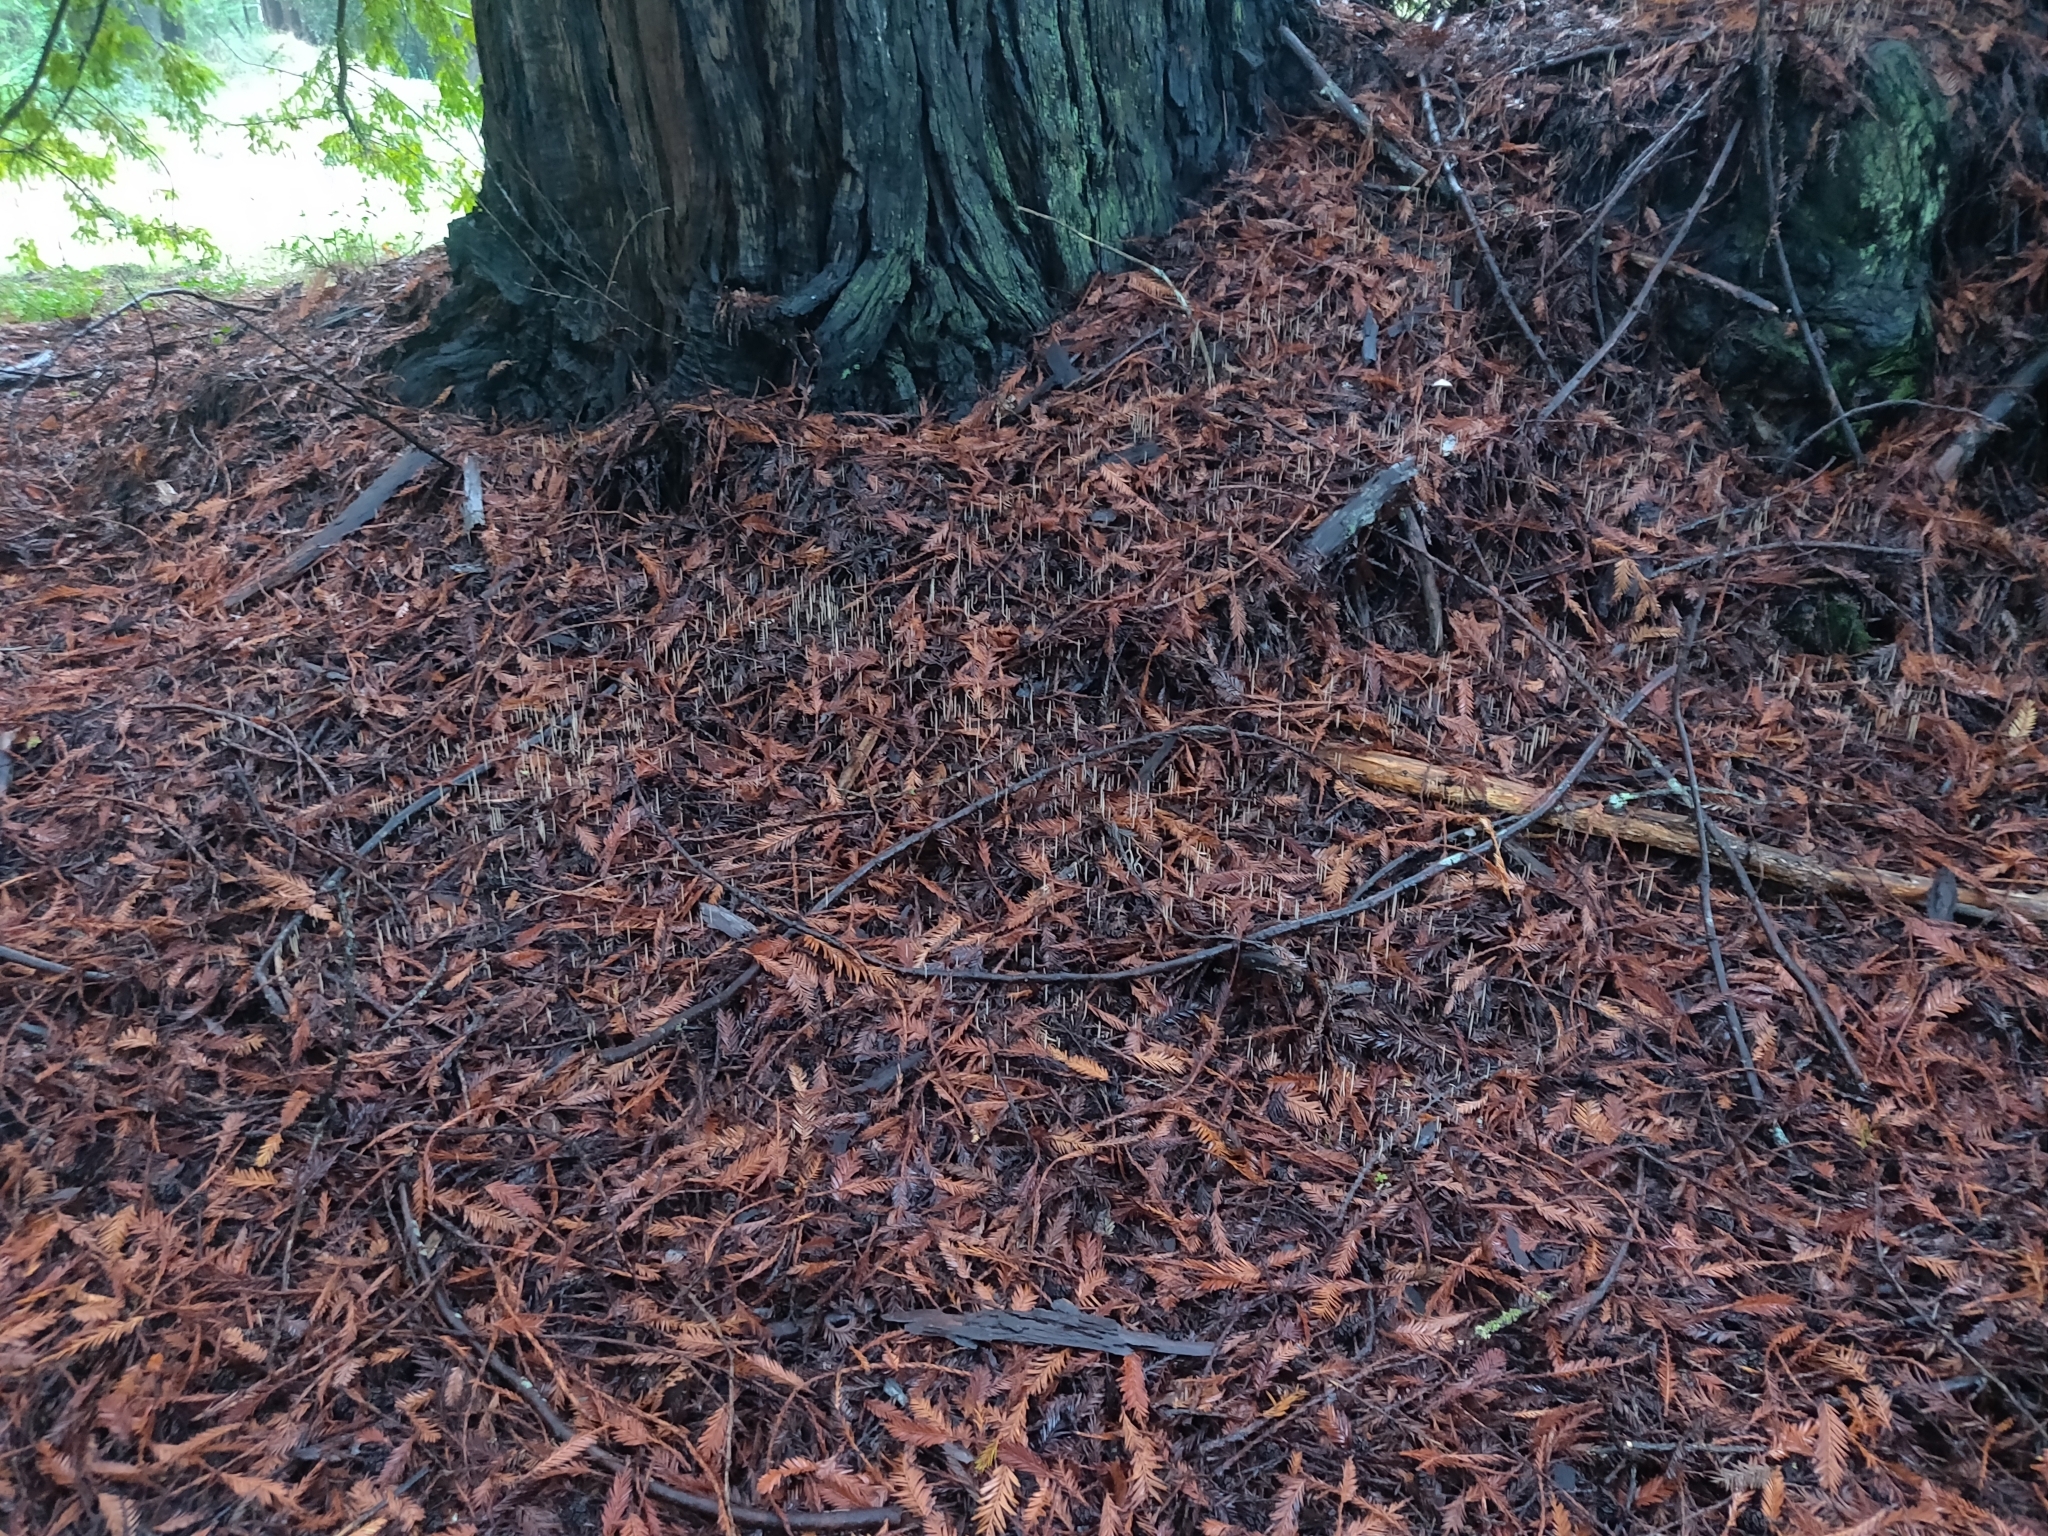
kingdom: Fungi
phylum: Basidiomycota
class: Agaricomycetes
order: Agaricales
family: Typhulaceae
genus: Typhula
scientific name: Typhula juncea
